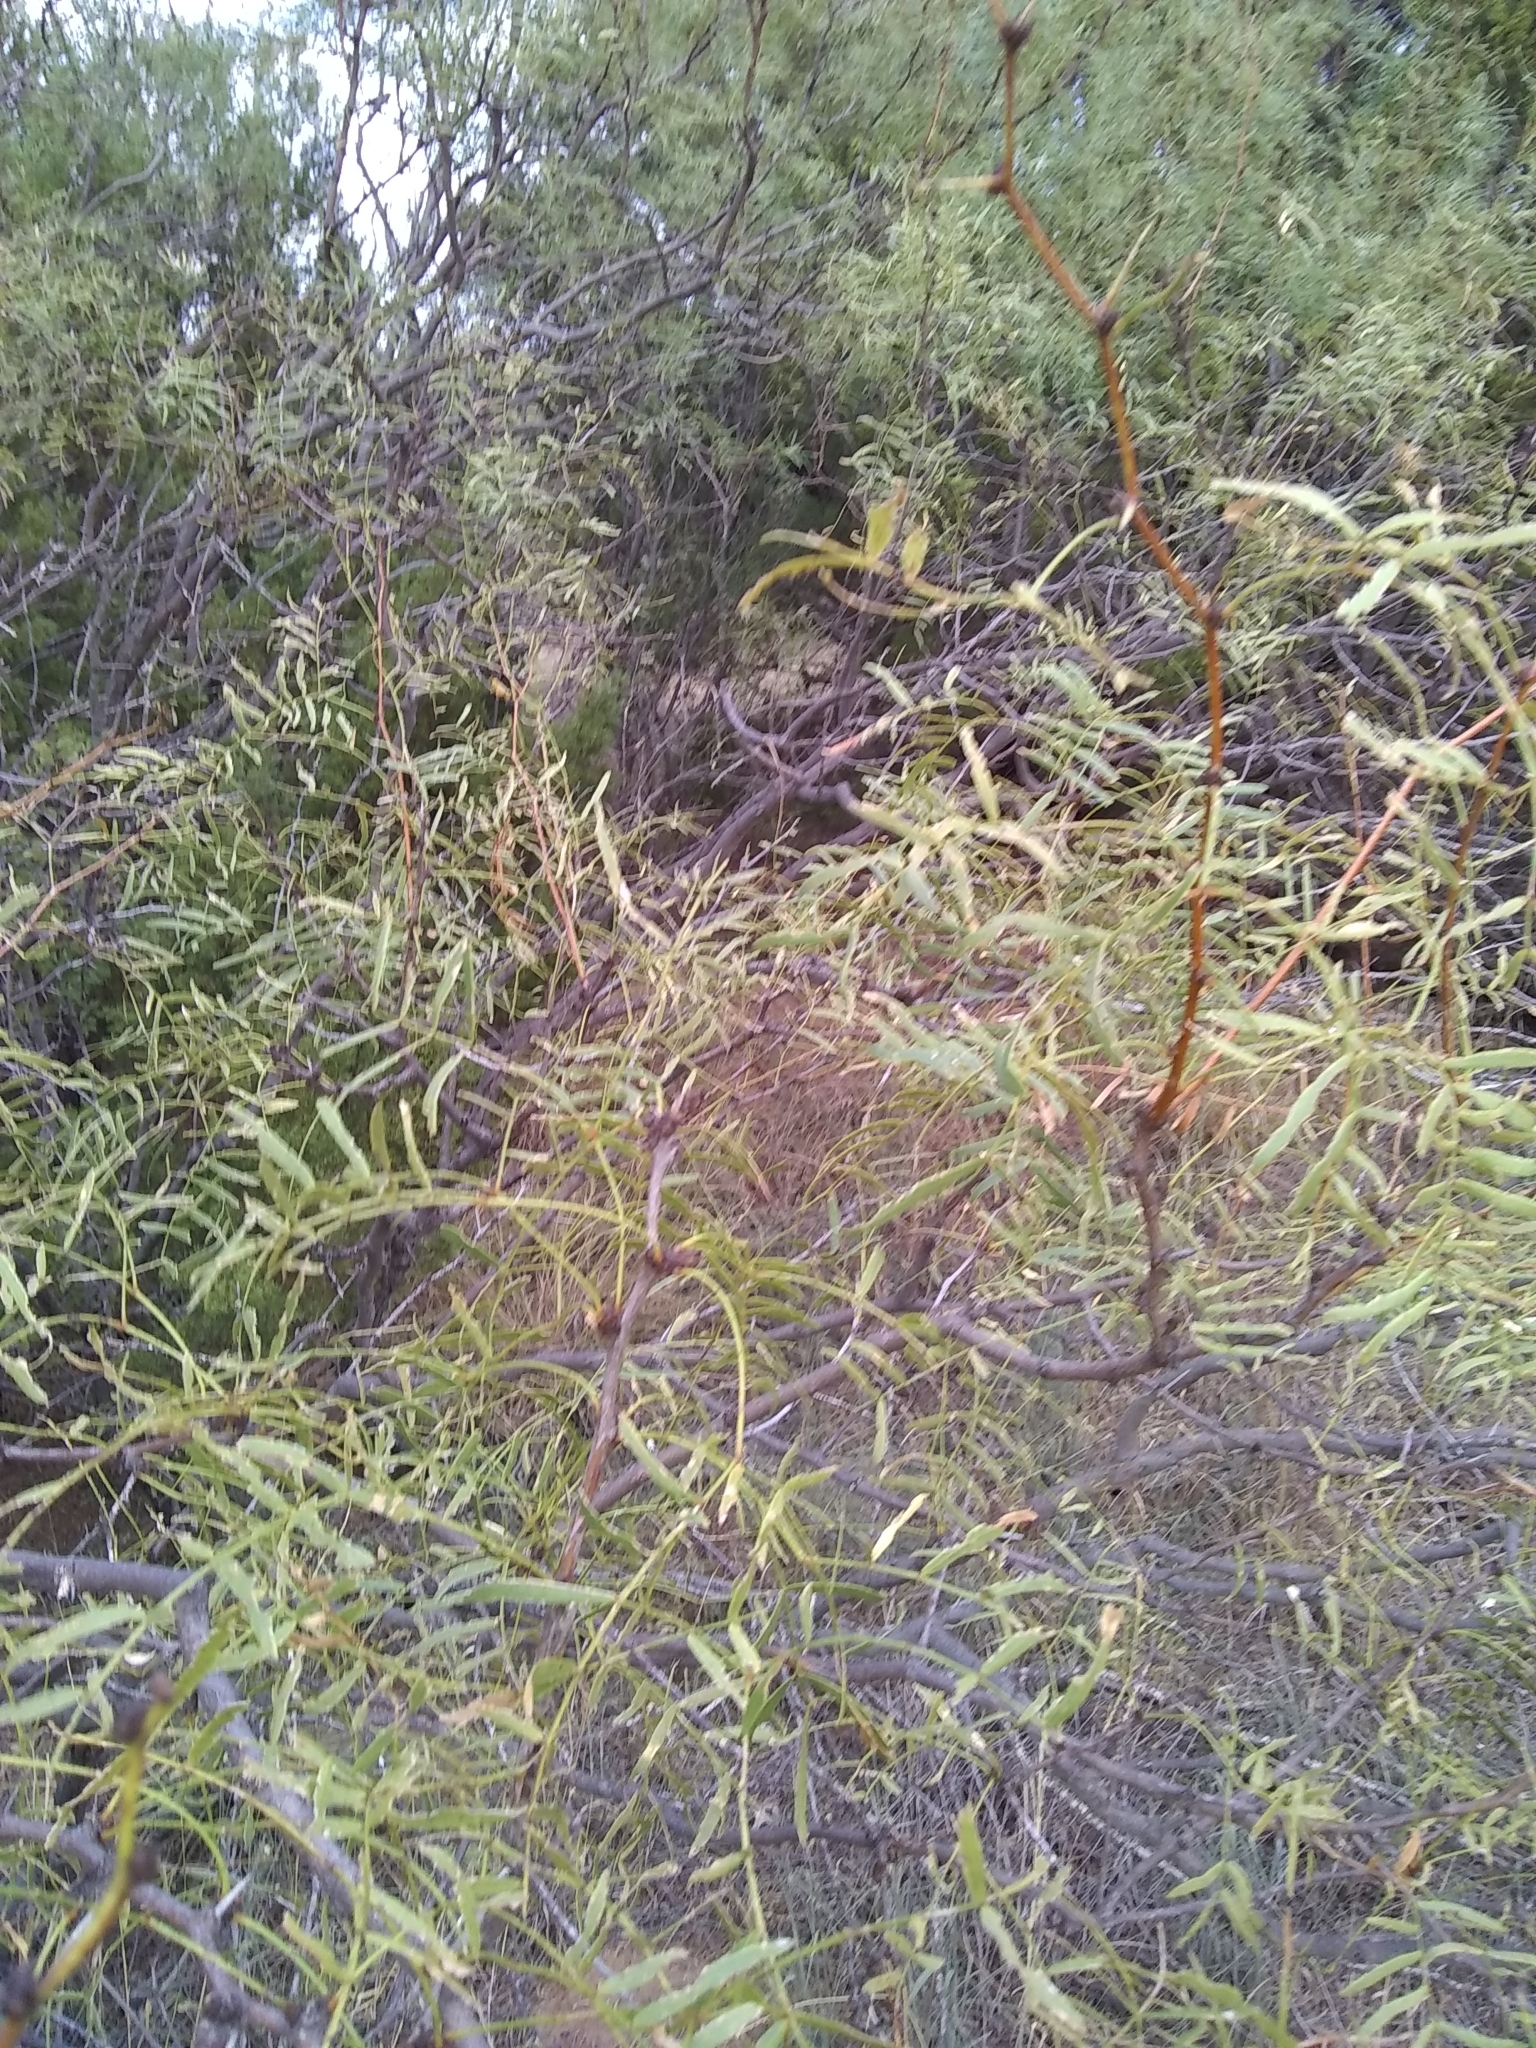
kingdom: Plantae
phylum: Tracheophyta
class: Magnoliopsida
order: Fabales
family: Fabaceae
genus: Prosopis
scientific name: Prosopis glandulosa
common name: Honey mesquite
